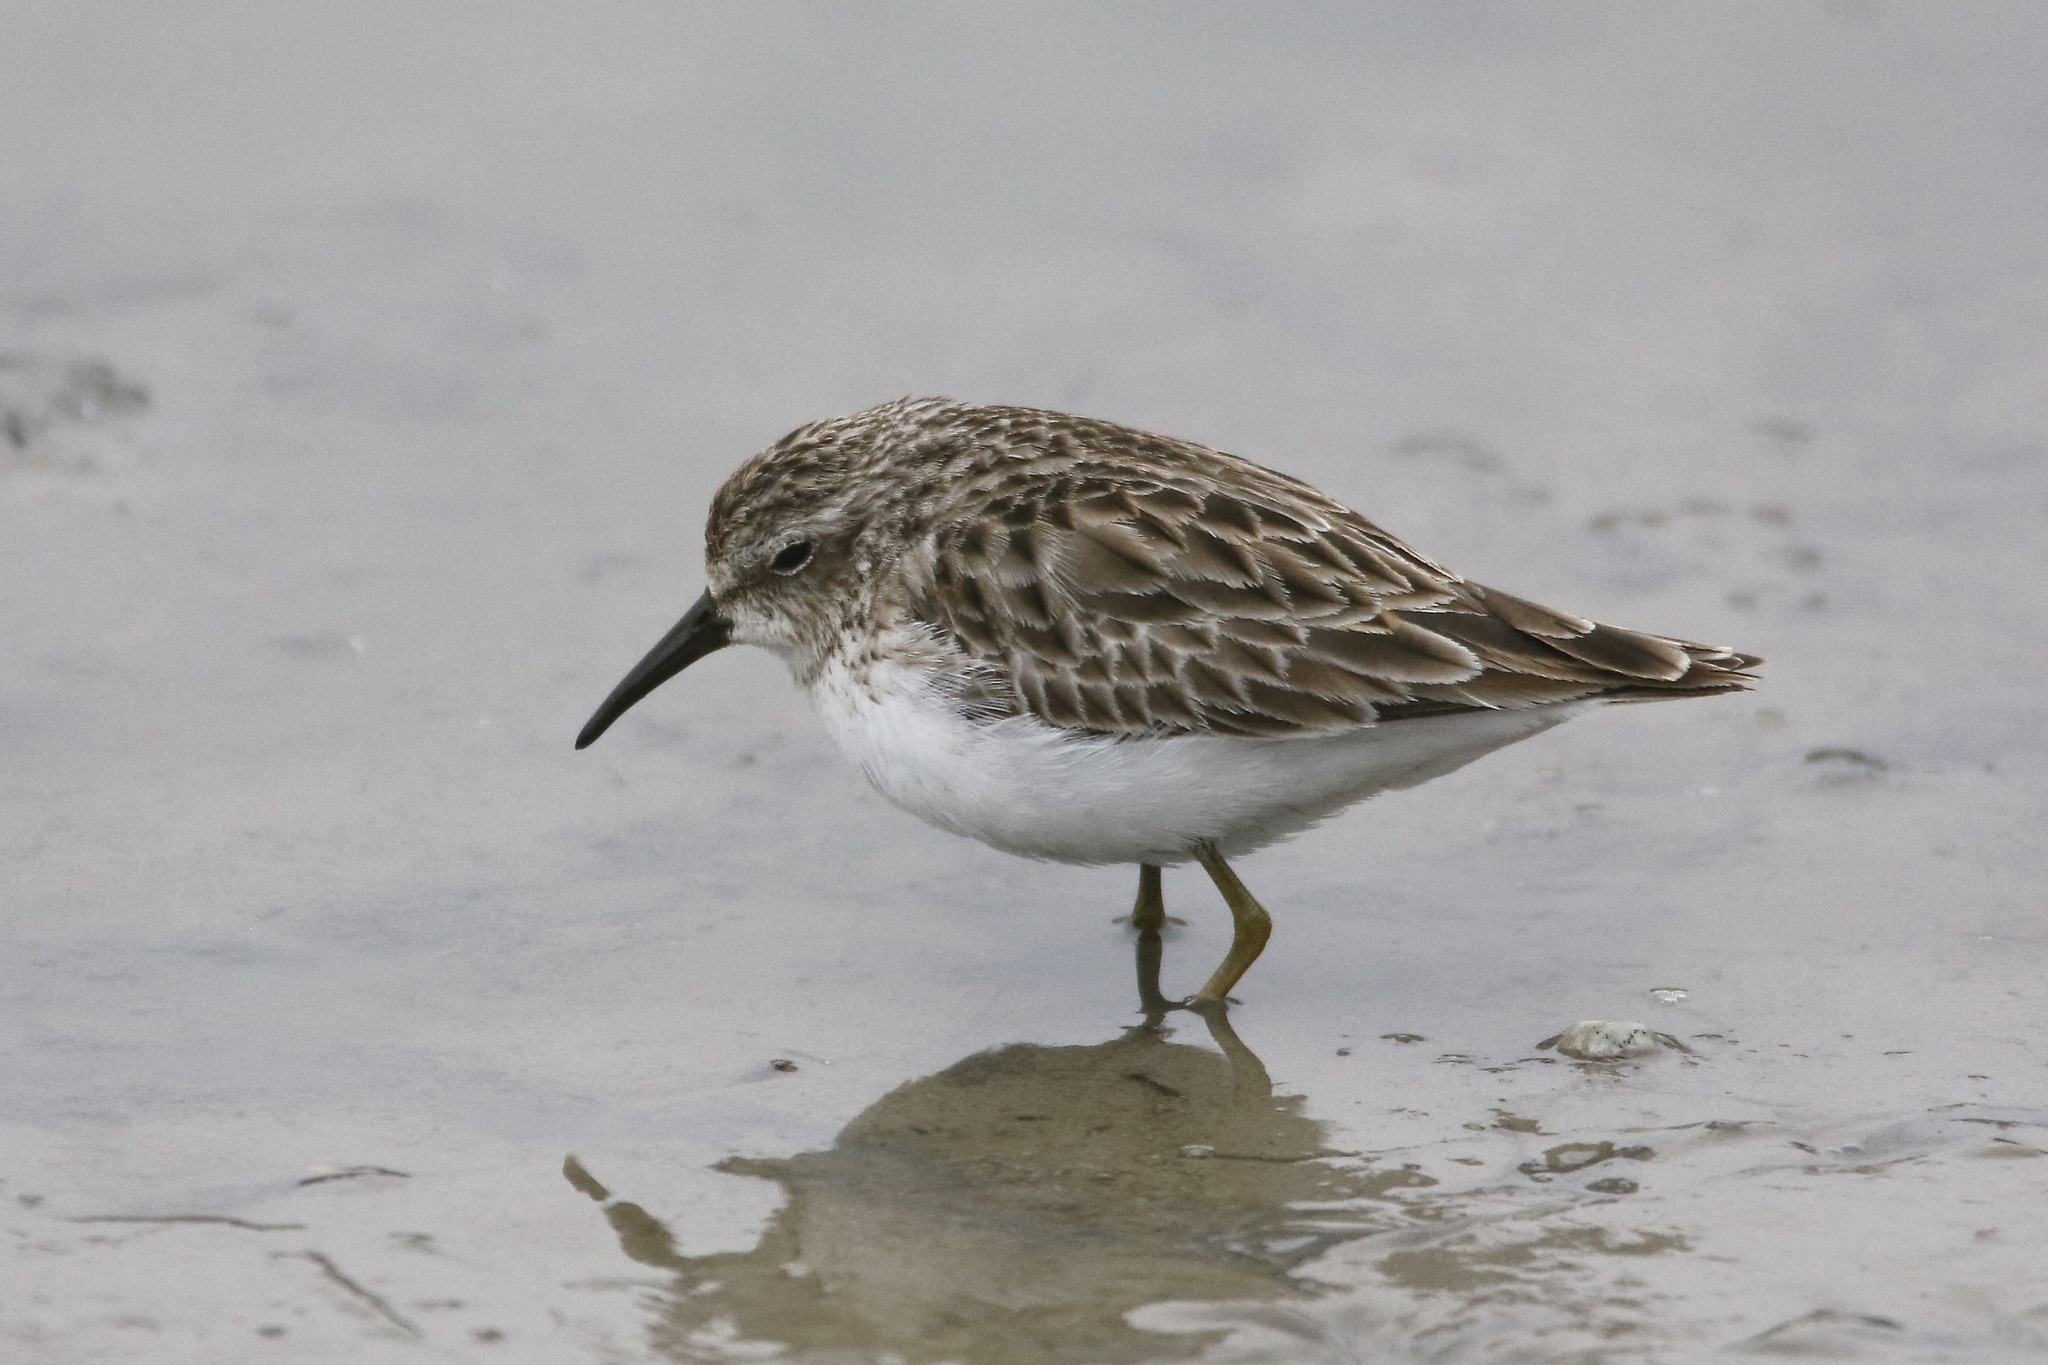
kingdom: Animalia
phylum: Chordata
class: Aves
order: Charadriiformes
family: Scolopacidae
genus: Calidris
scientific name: Calidris minutilla
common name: Least sandpiper
